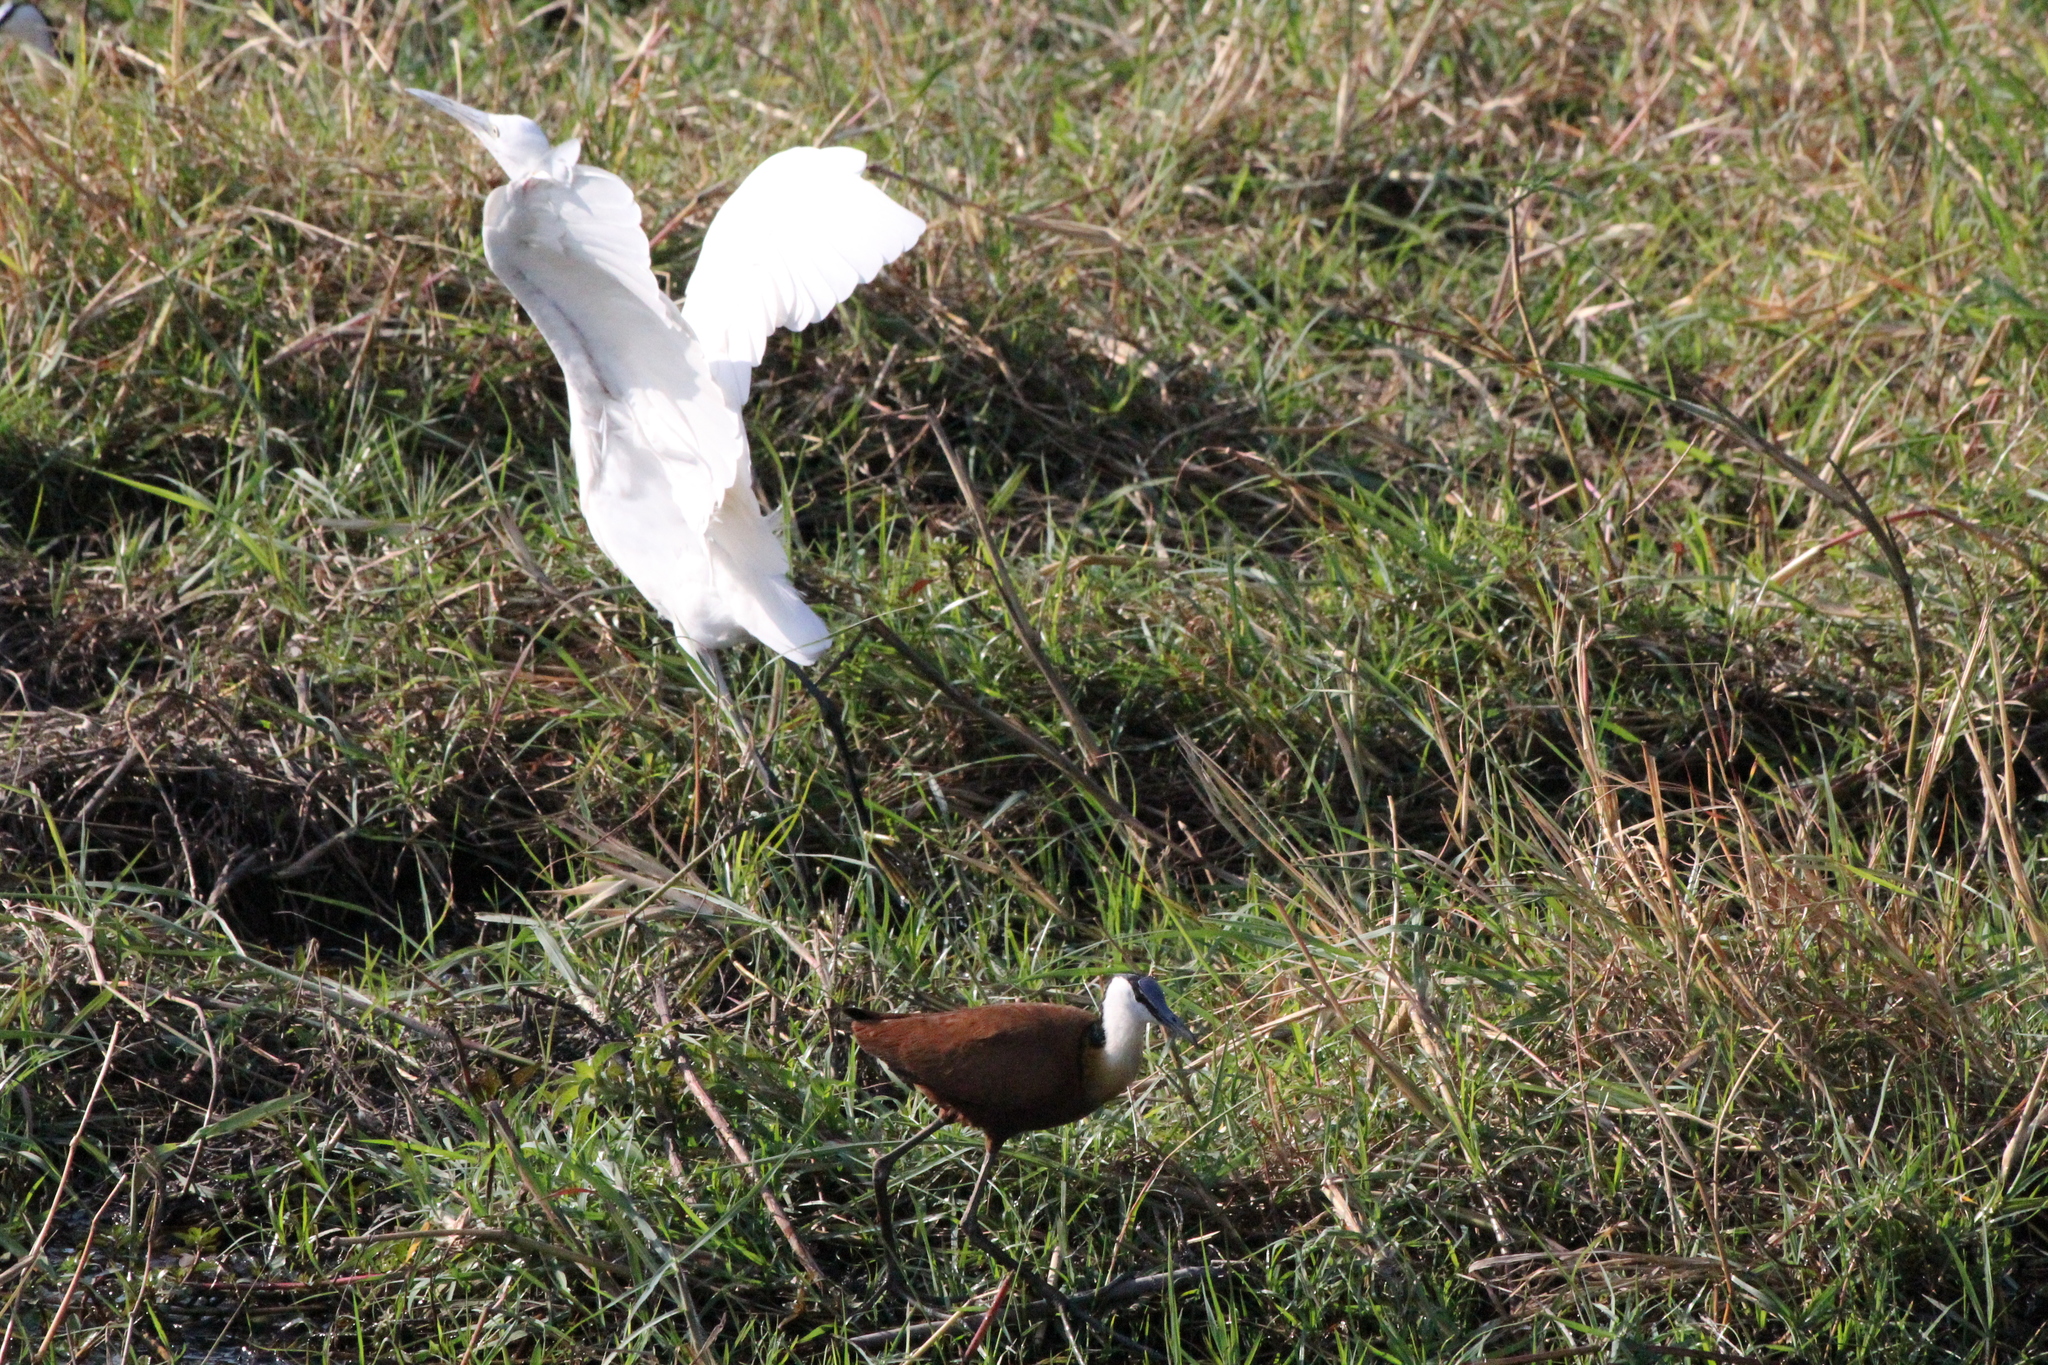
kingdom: Animalia
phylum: Chordata
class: Aves
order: Charadriiformes
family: Jacanidae
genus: Actophilornis
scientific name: Actophilornis africanus
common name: African jacana
